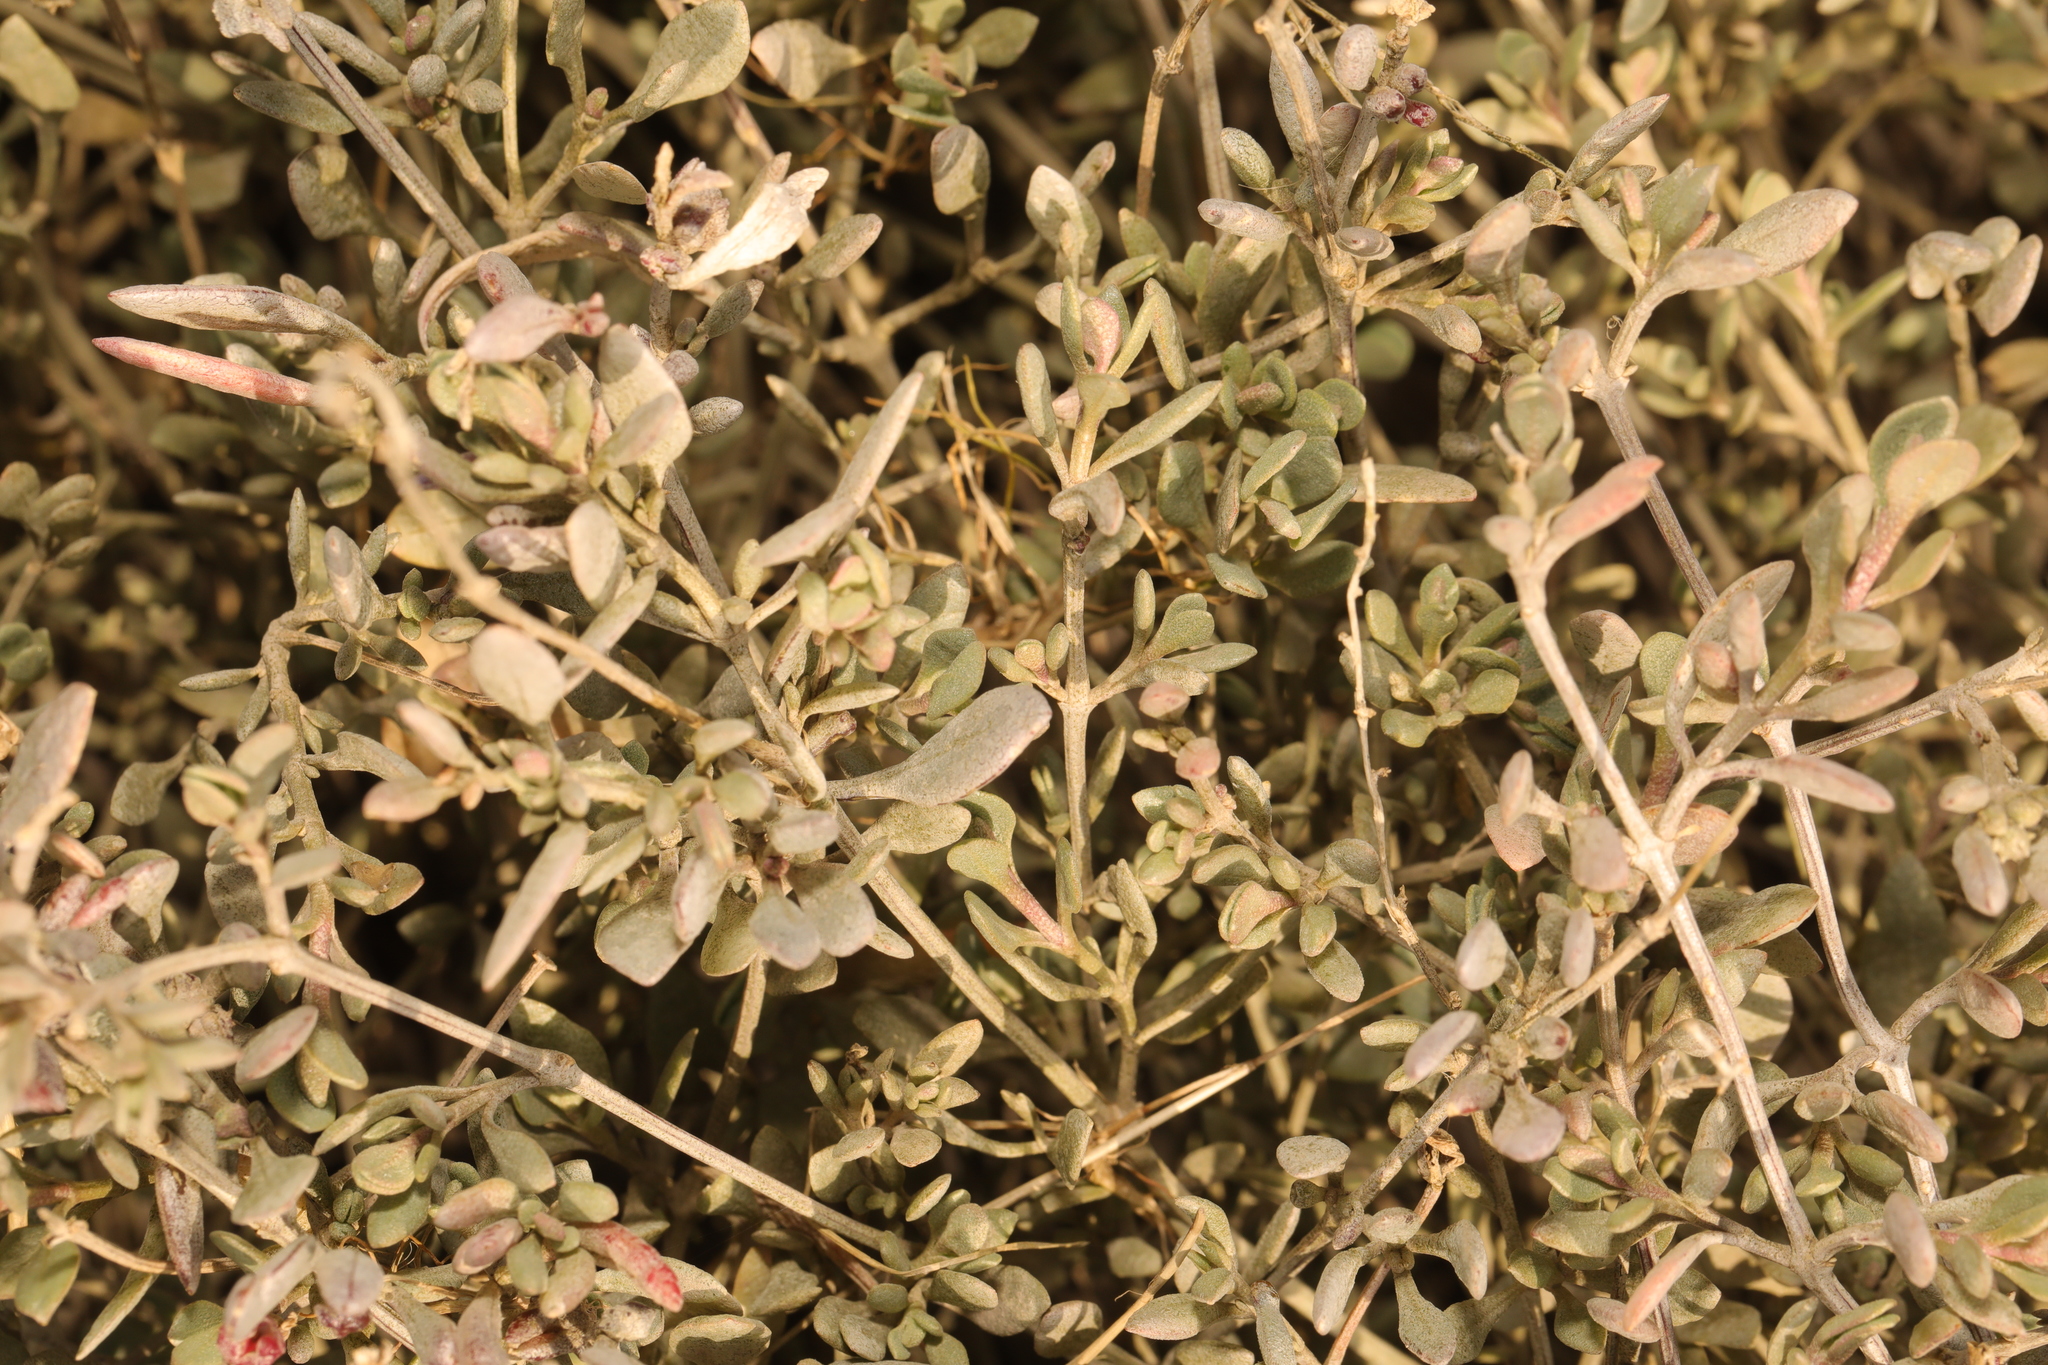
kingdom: Plantae
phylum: Tracheophyta
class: Magnoliopsida
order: Caryophyllales
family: Amaranthaceae
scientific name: Amaranthaceae
